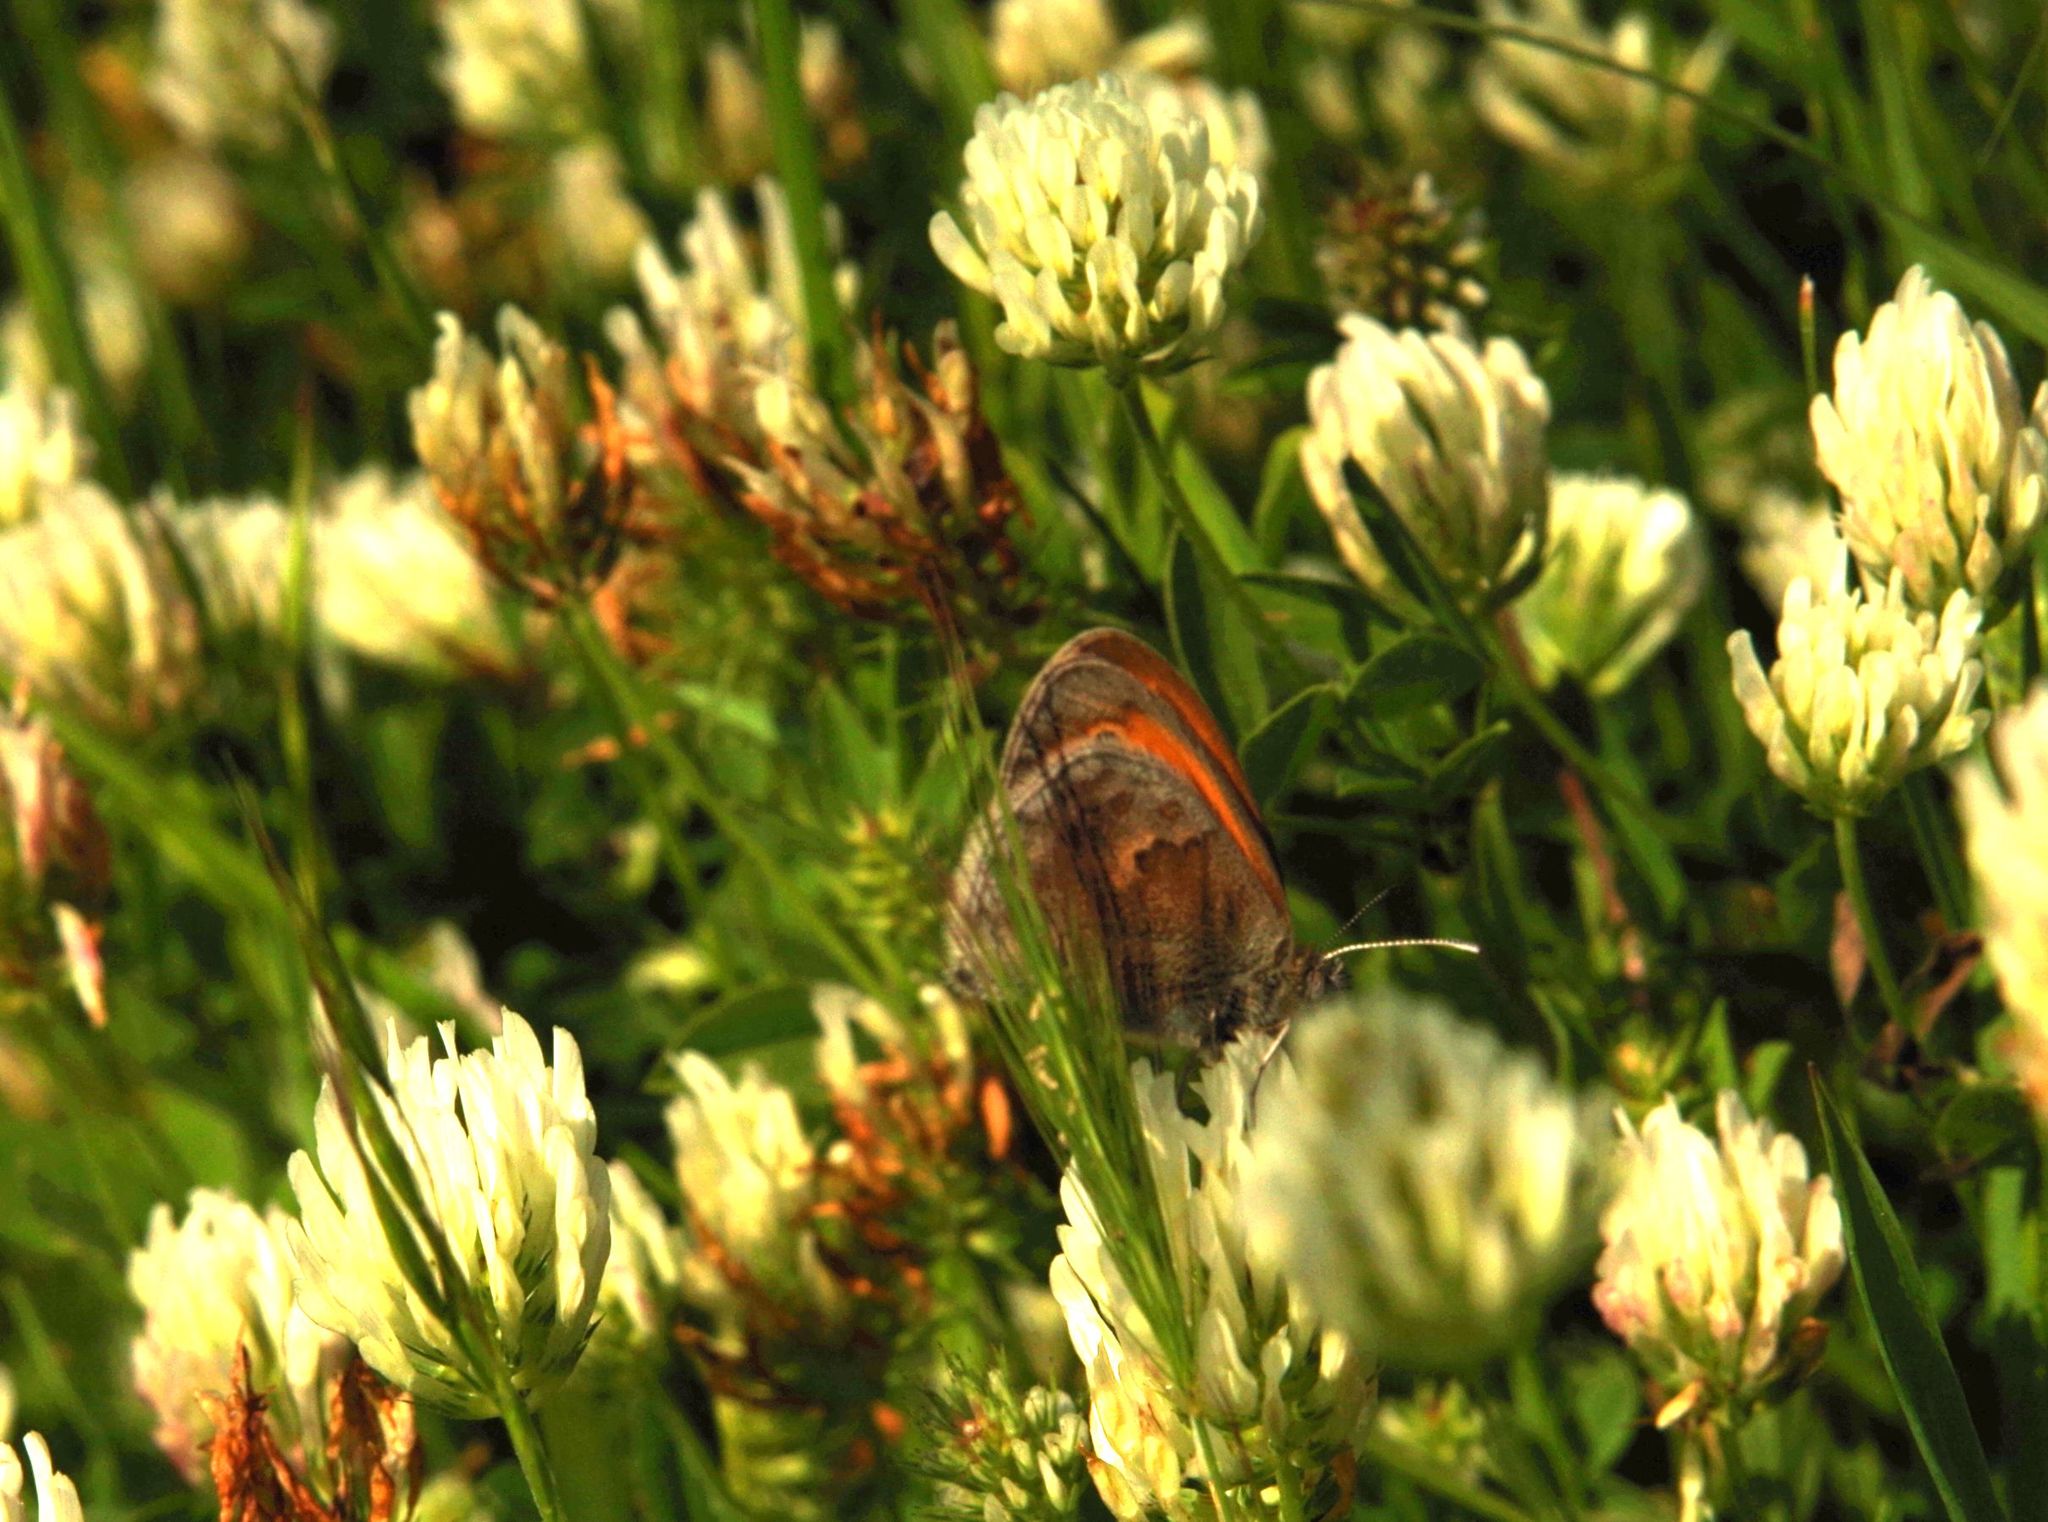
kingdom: Animalia
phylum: Arthropoda
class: Insecta
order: Lepidoptera
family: Nymphalidae
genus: Coenonympha
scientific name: Coenonympha pamphilus
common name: Small heath
